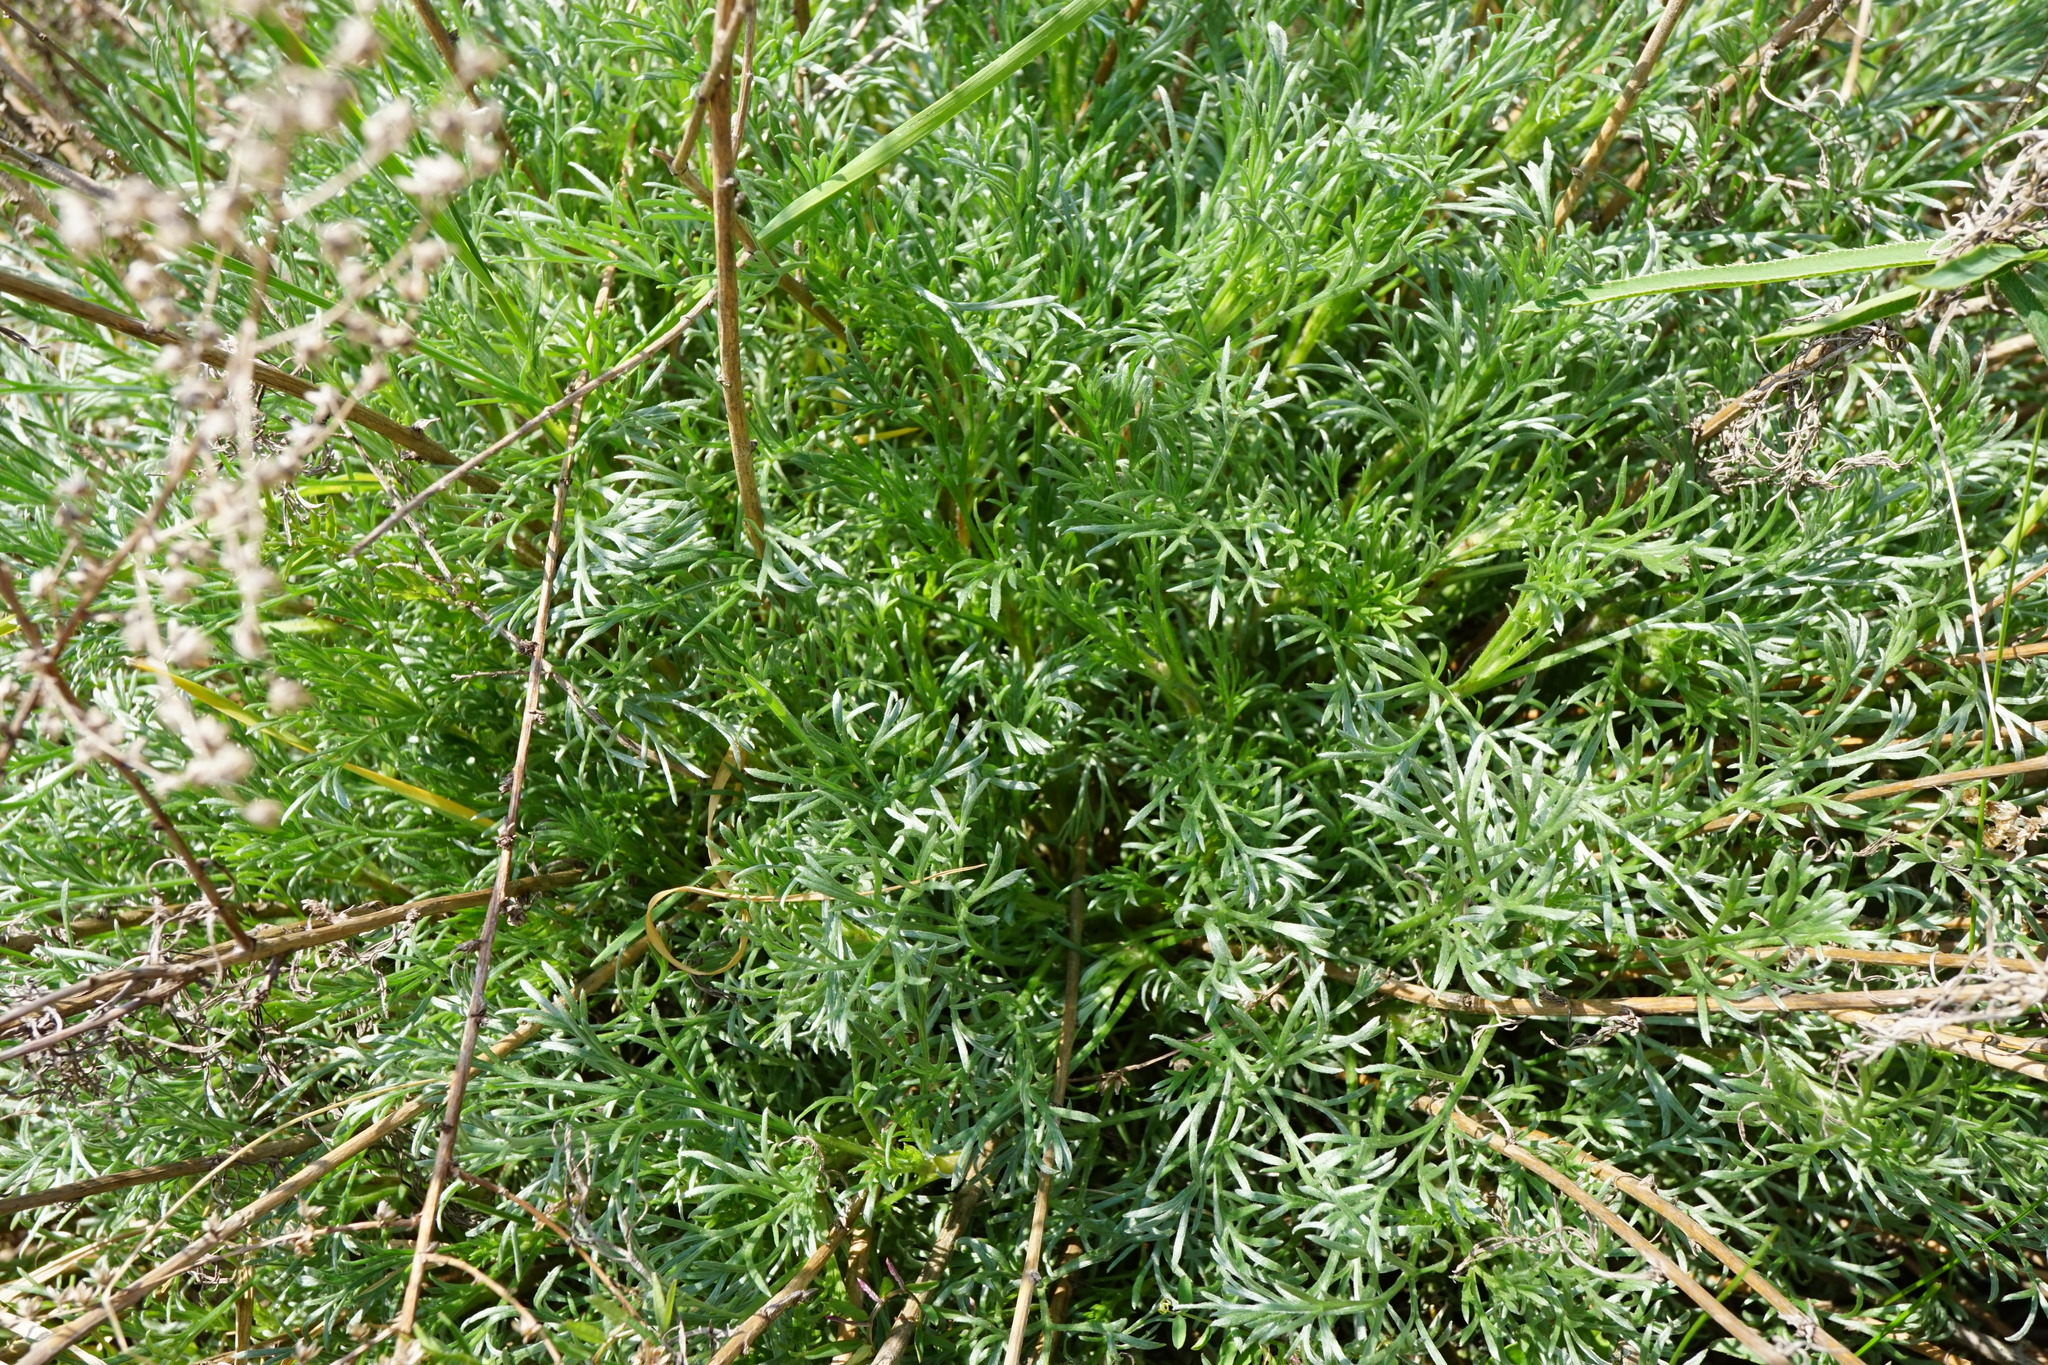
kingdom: Plantae
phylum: Tracheophyta
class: Magnoliopsida
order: Asterales
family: Asteraceae
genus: Artemisia
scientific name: Artemisia campestris
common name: Field wormwood
